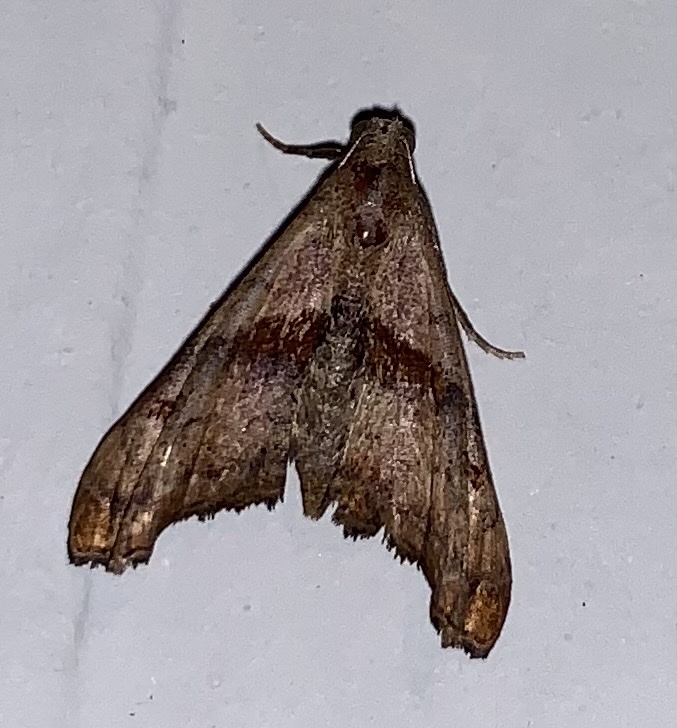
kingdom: Animalia
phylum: Arthropoda
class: Insecta
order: Lepidoptera
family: Erebidae
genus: Palthis
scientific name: Palthis angulalis
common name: Dark-spotted palthis moth
